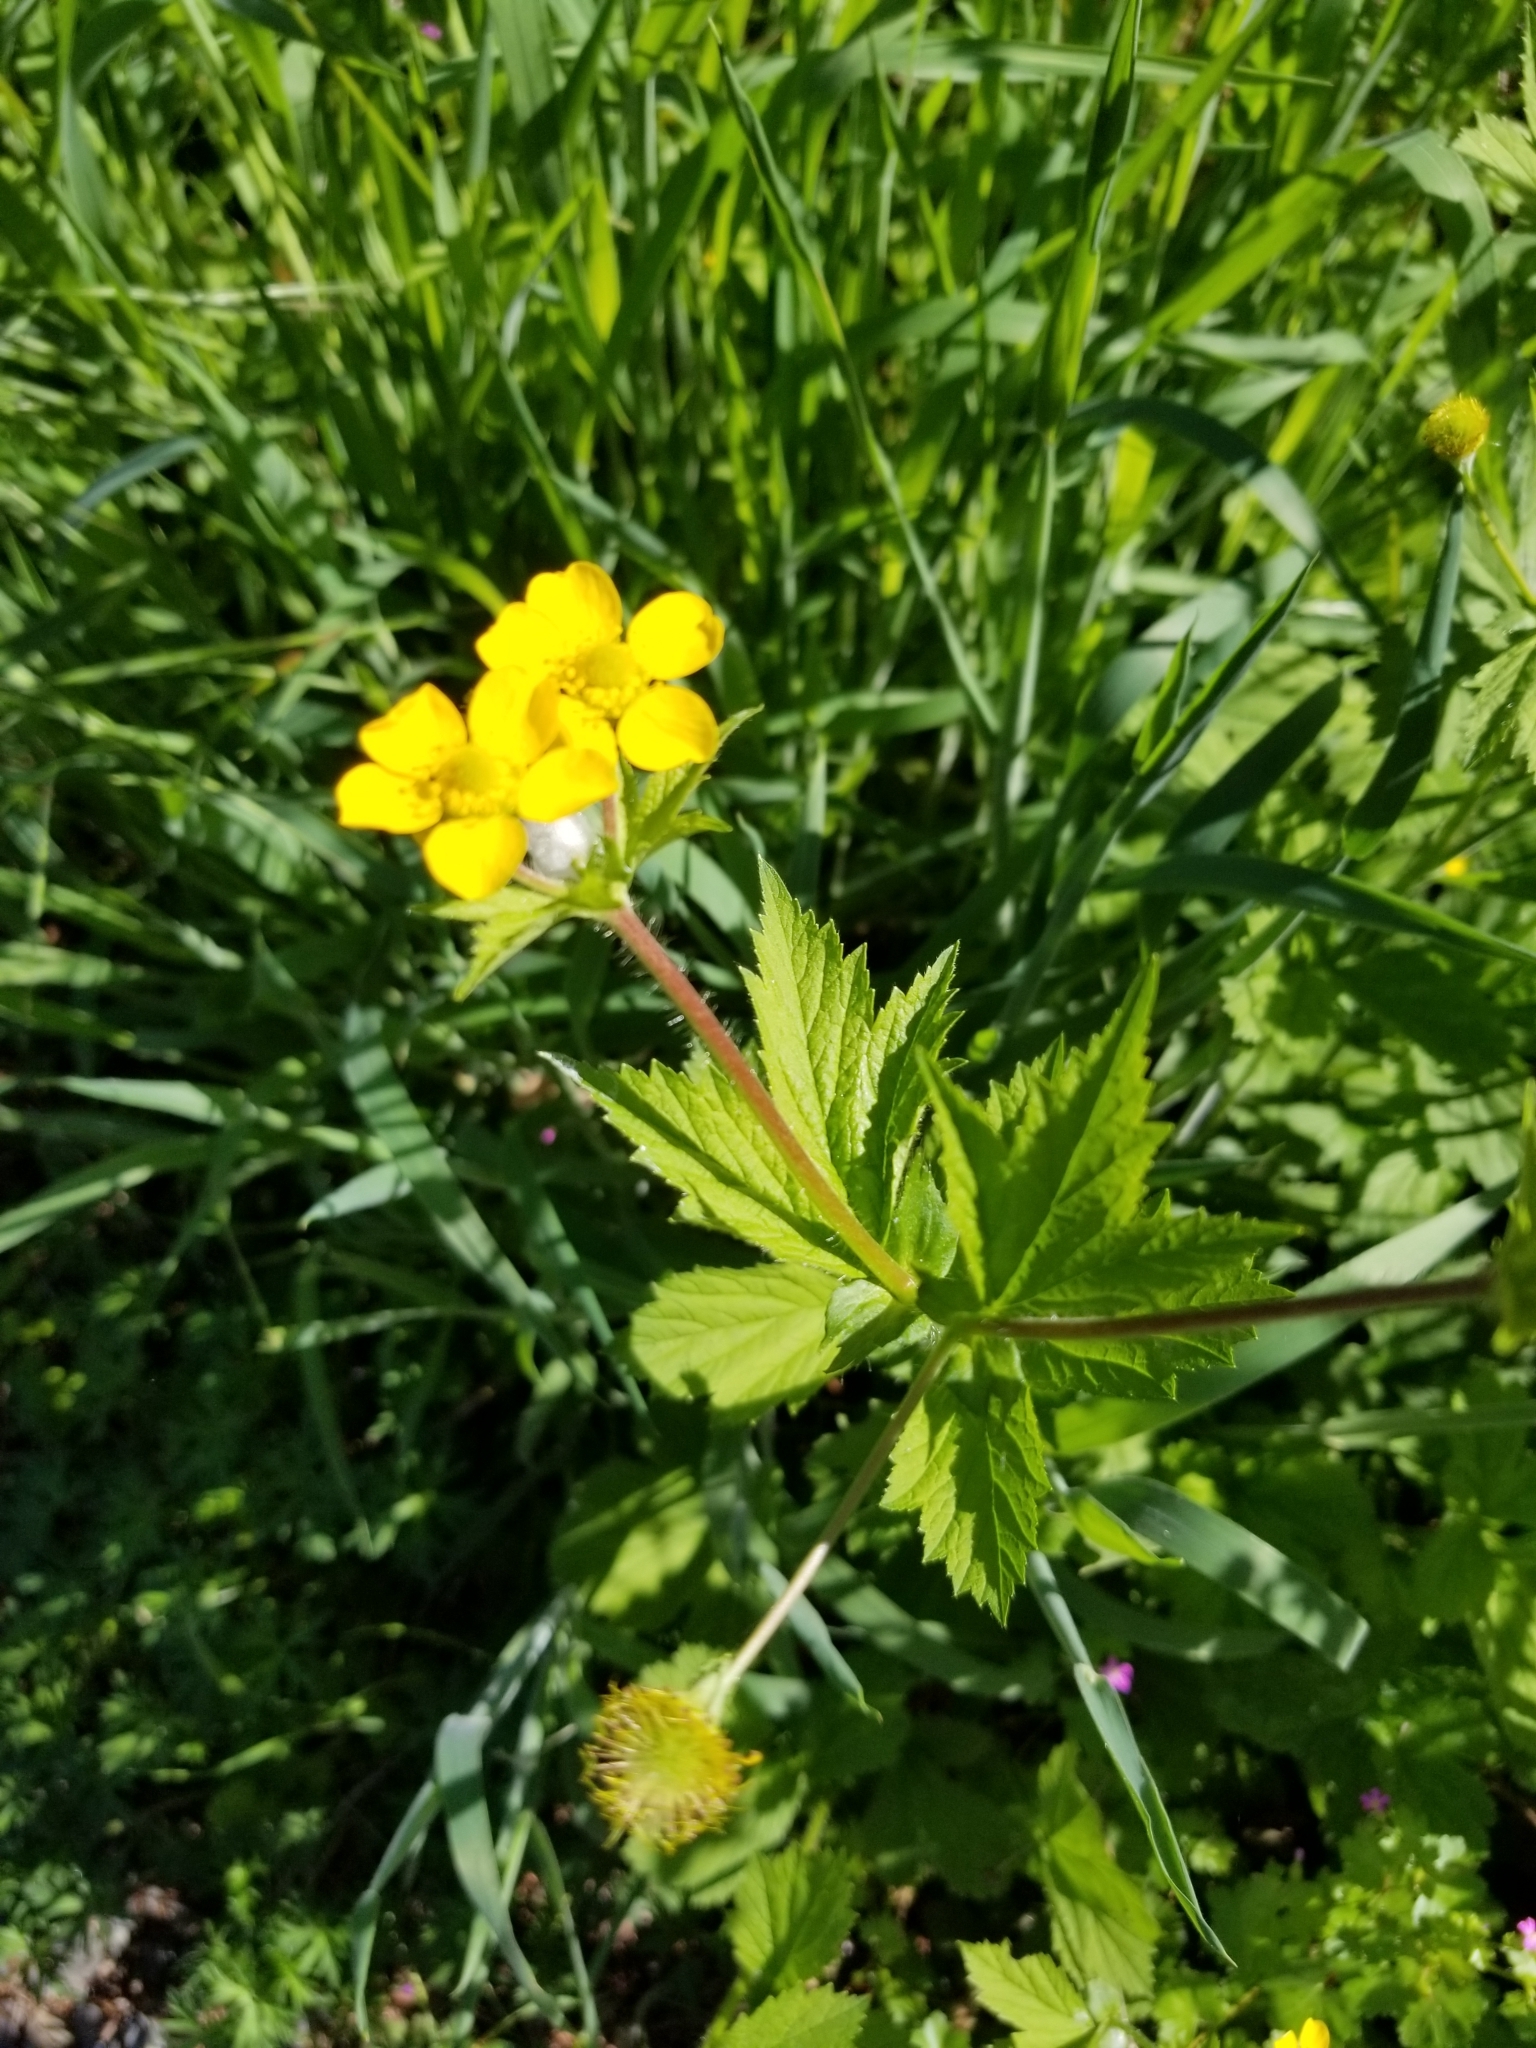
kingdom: Plantae
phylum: Tracheophyta
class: Magnoliopsida
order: Rosales
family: Rosaceae
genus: Geum
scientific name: Geum macrophyllum
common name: Large-leaved avens
